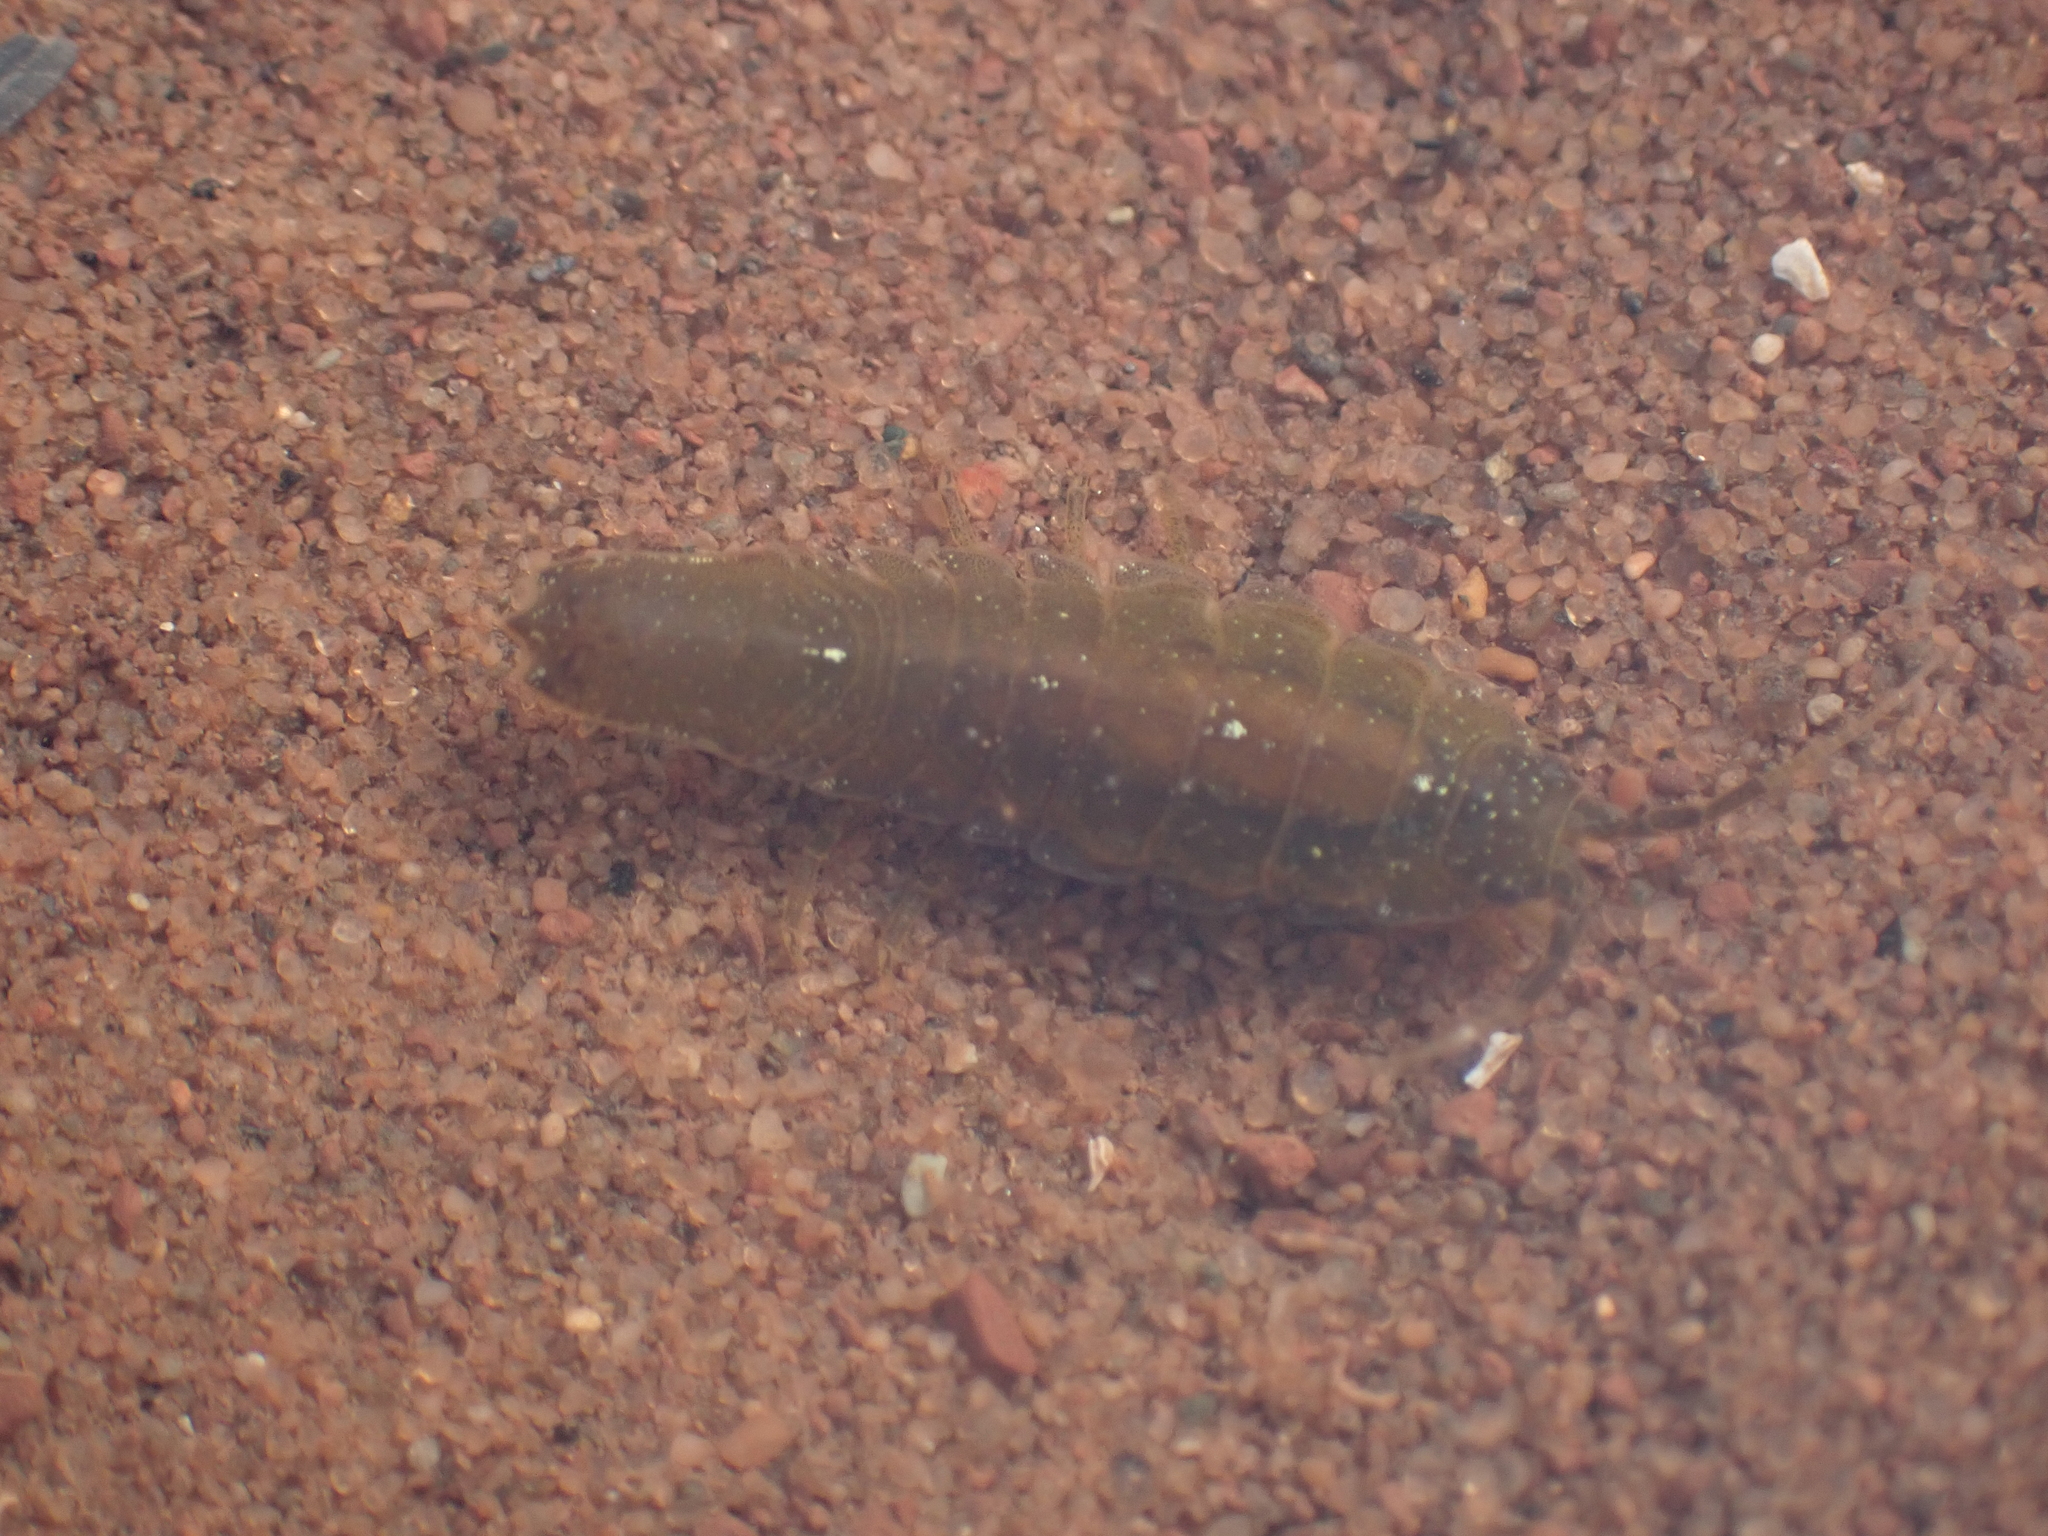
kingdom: Animalia
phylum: Arthropoda
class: Malacostraca
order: Isopoda
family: Idoteidae
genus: Idotea
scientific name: Idotea balthica
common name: Baltic isopod
